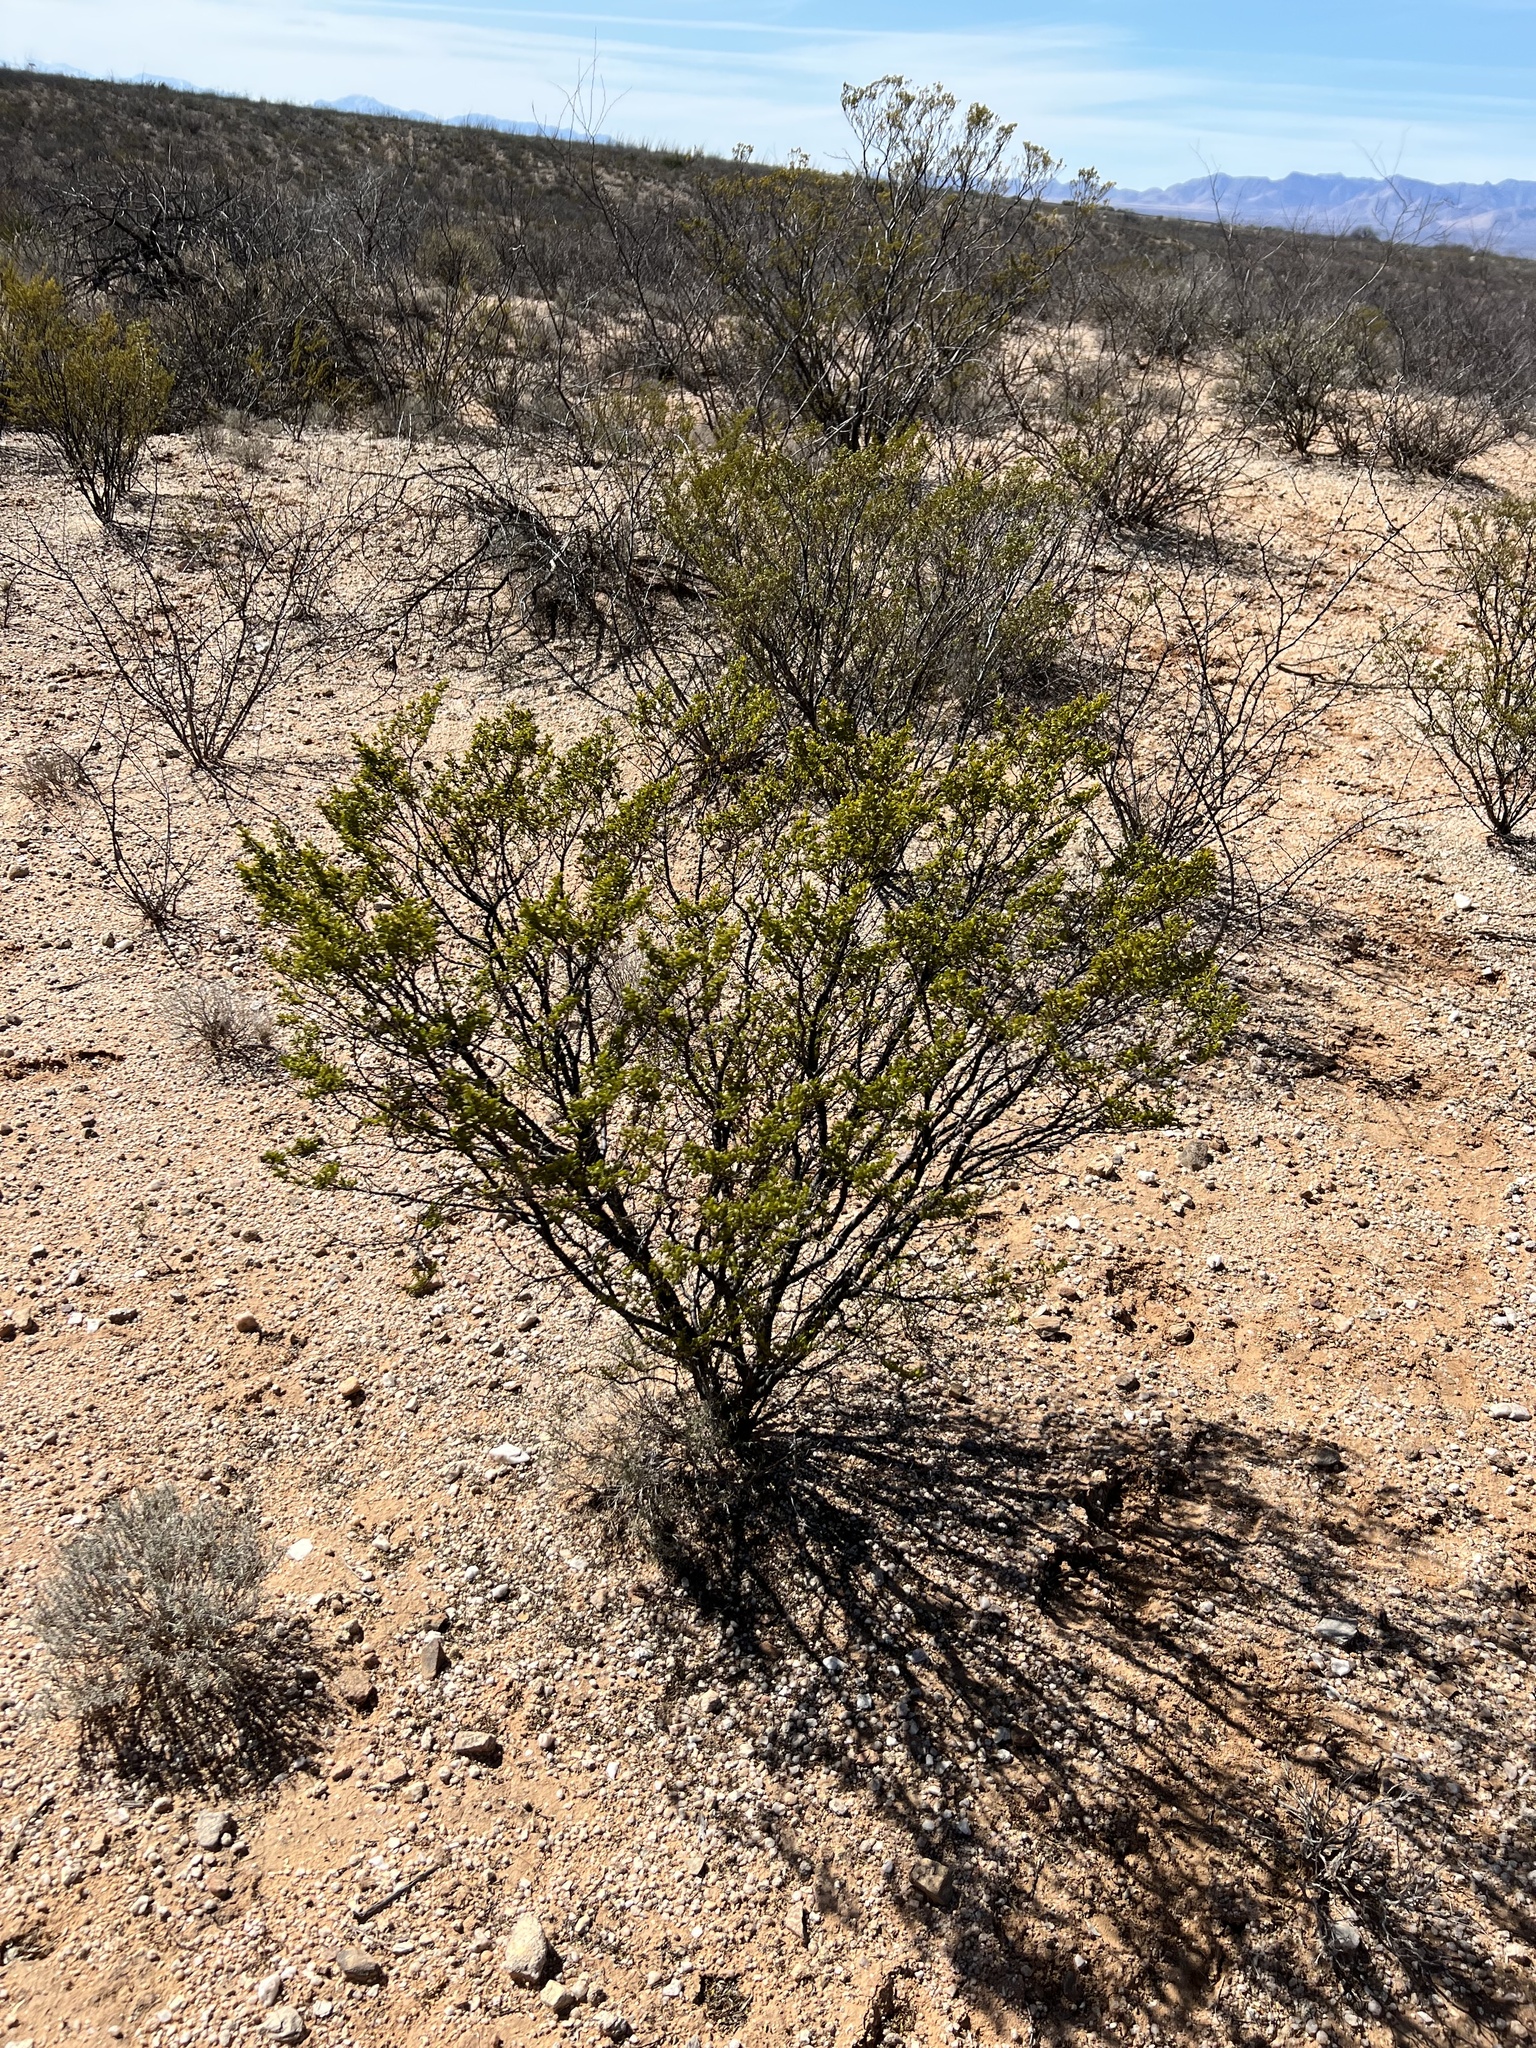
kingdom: Plantae
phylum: Tracheophyta
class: Magnoliopsida
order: Zygophyllales
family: Zygophyllaceae
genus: Larrea
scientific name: Larrea tridentata
